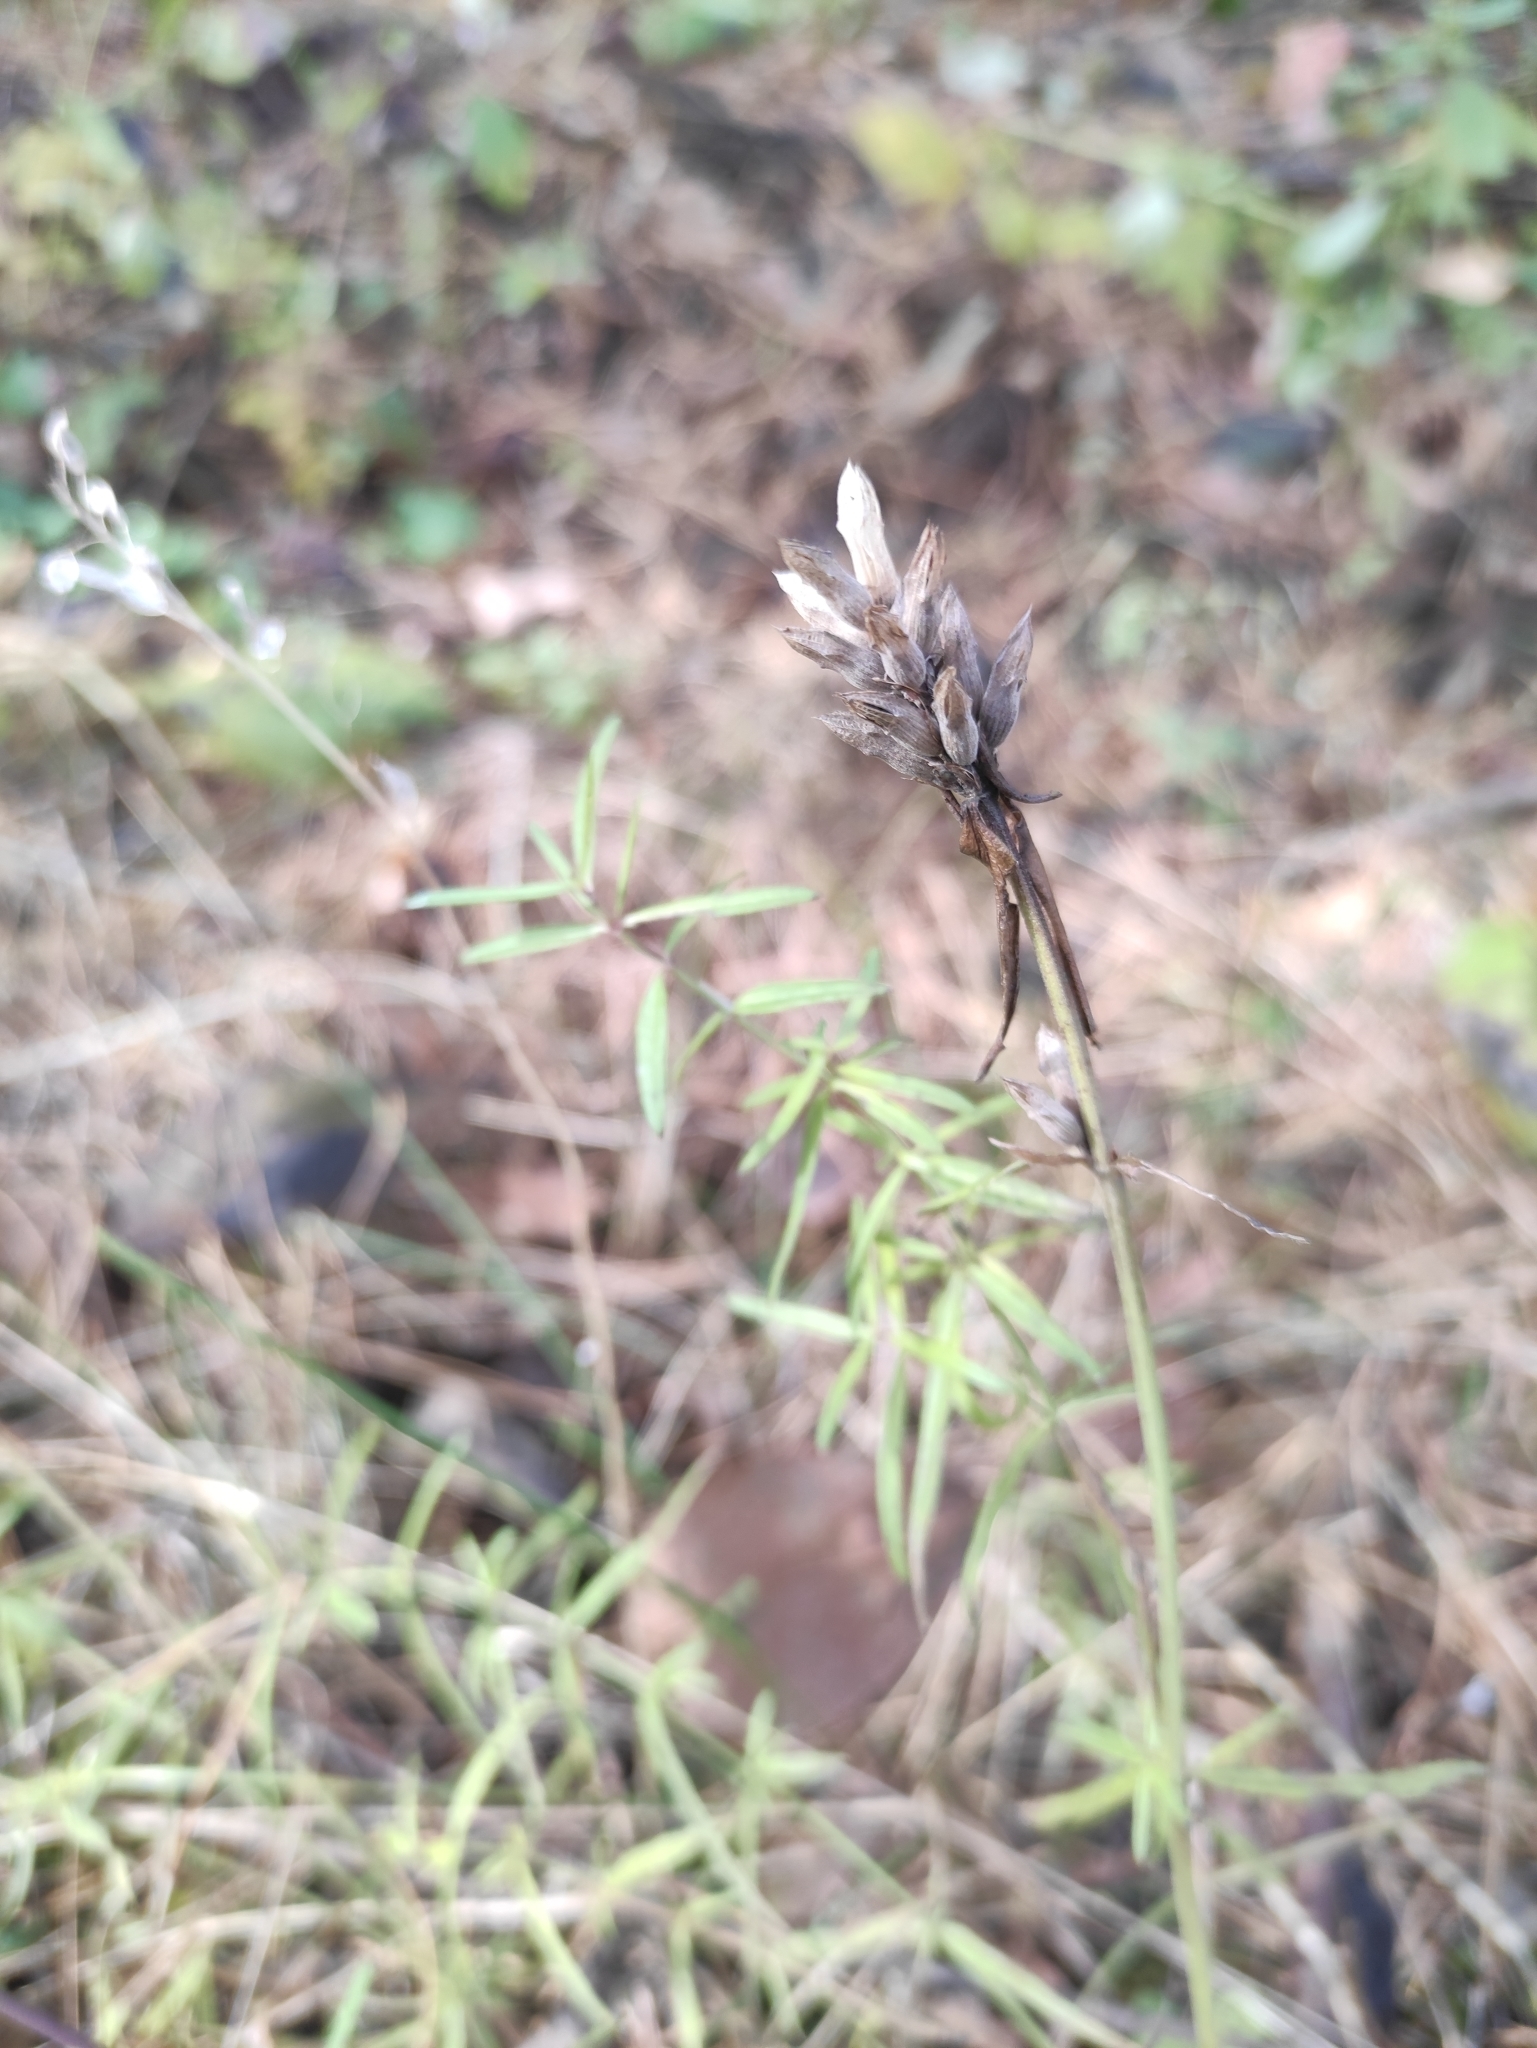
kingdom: Plantae
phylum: Tracheophyta
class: Magnoliopsida
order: Lamiales
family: Lamiaceae
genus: Dracocephalum
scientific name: Dracocephalum ruyschiana
